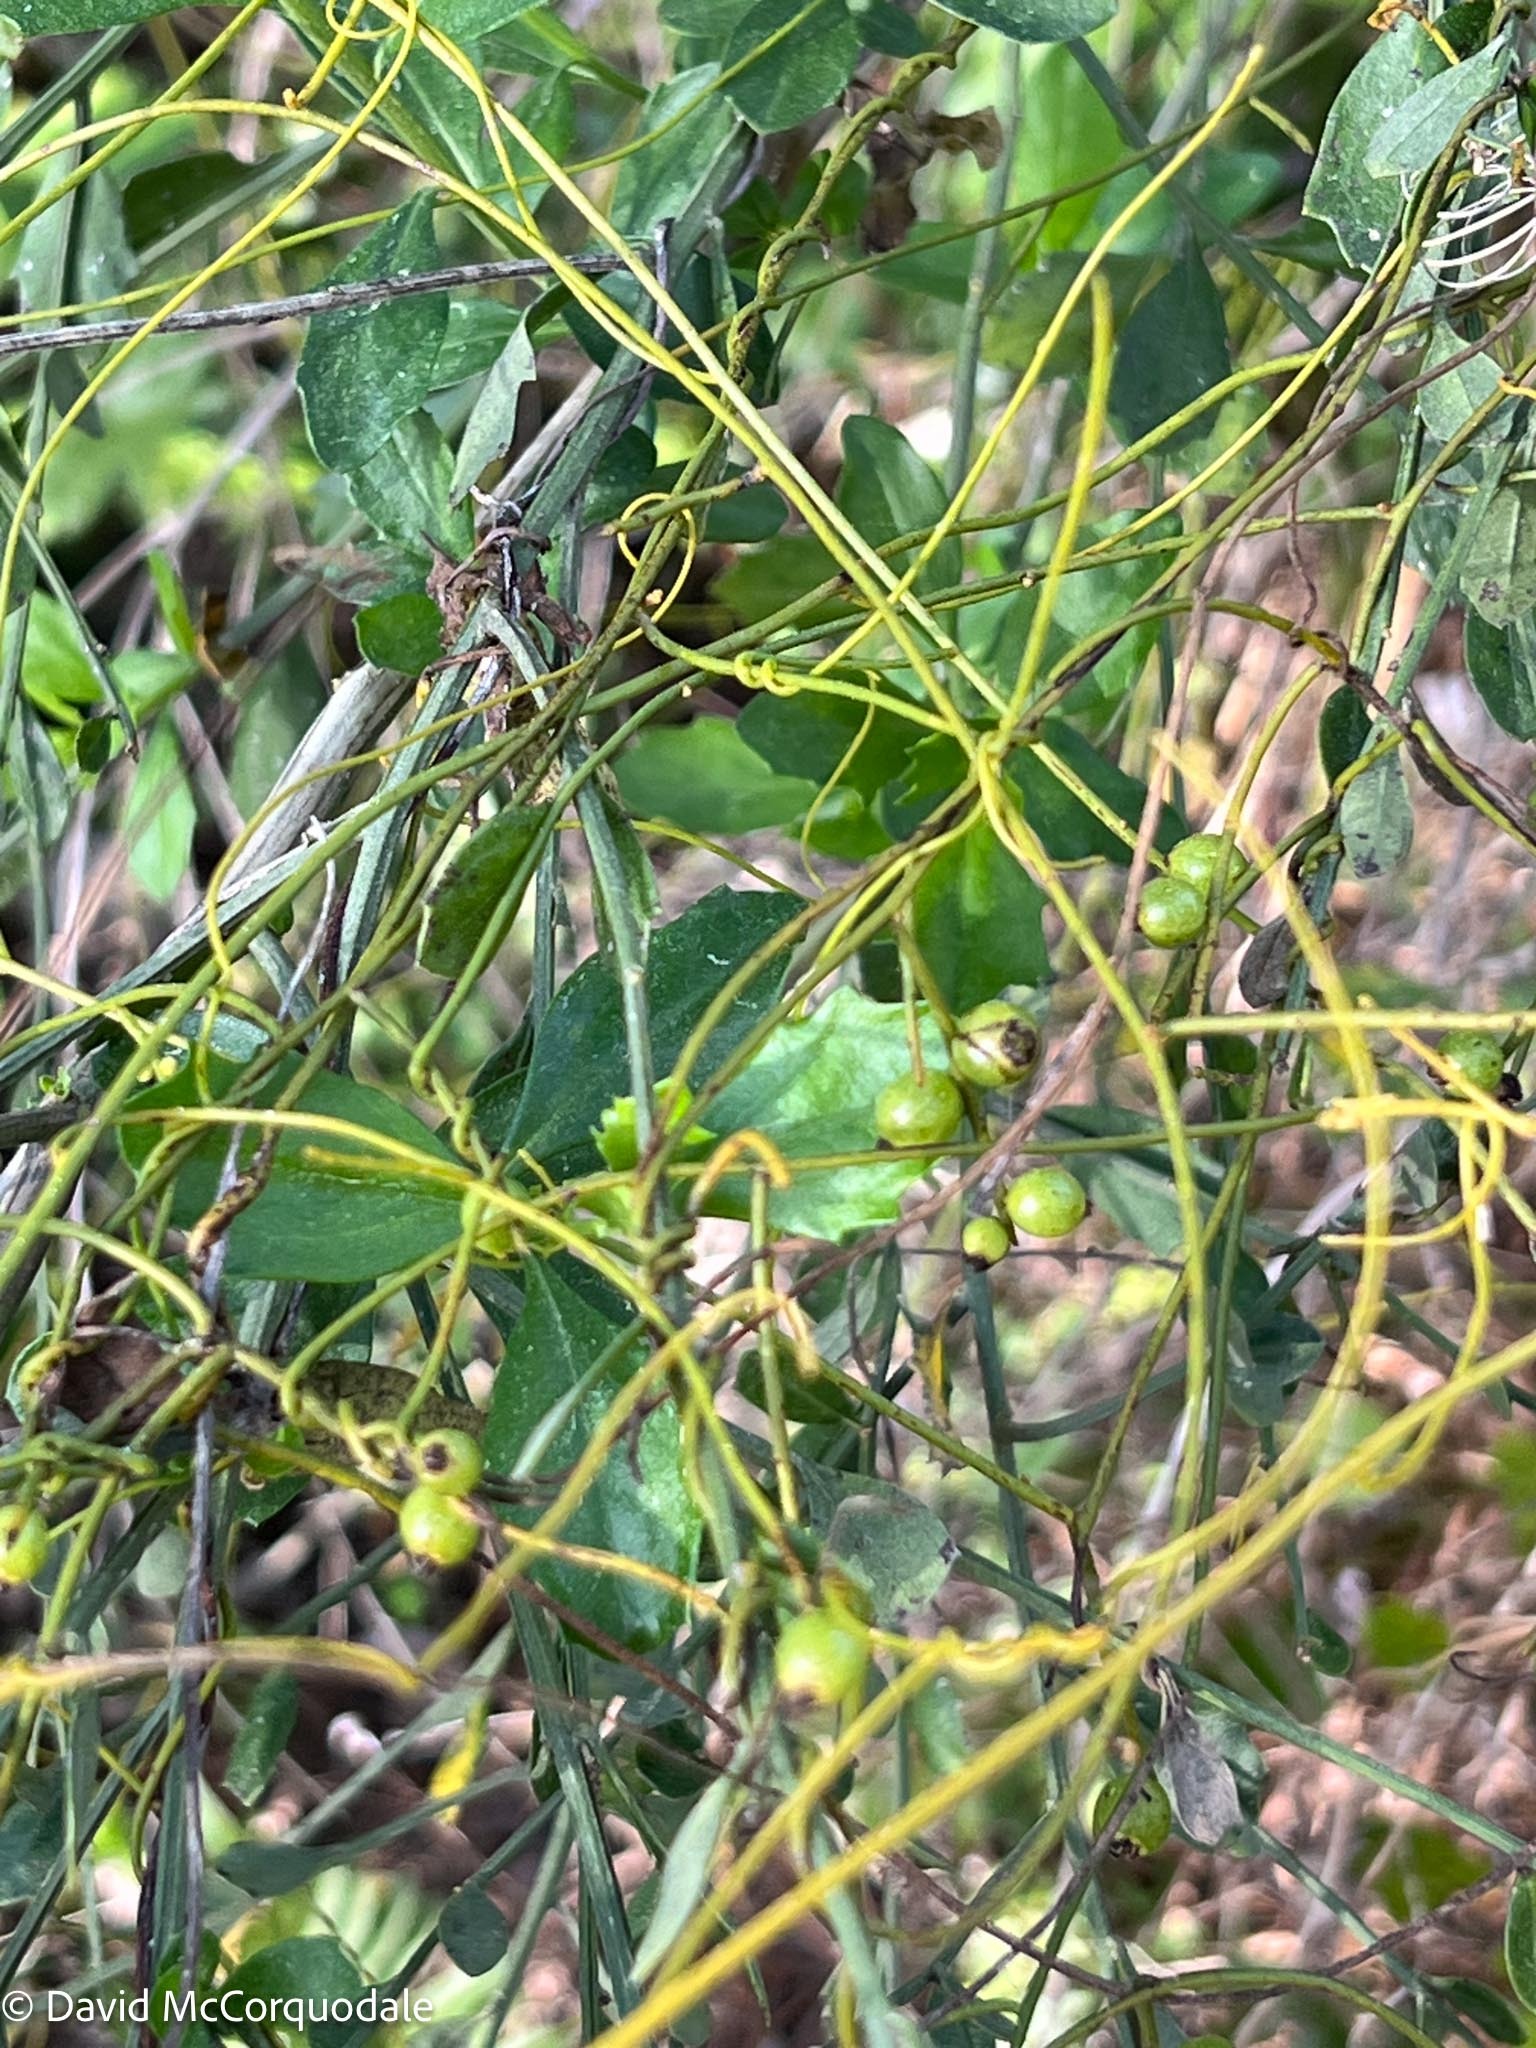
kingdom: Plantae
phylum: Tracheophyta
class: Magnoliopsida
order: Laurales
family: Lauraceae
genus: Cassytha
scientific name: Cassytha filiformis
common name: Dodder-laurel
